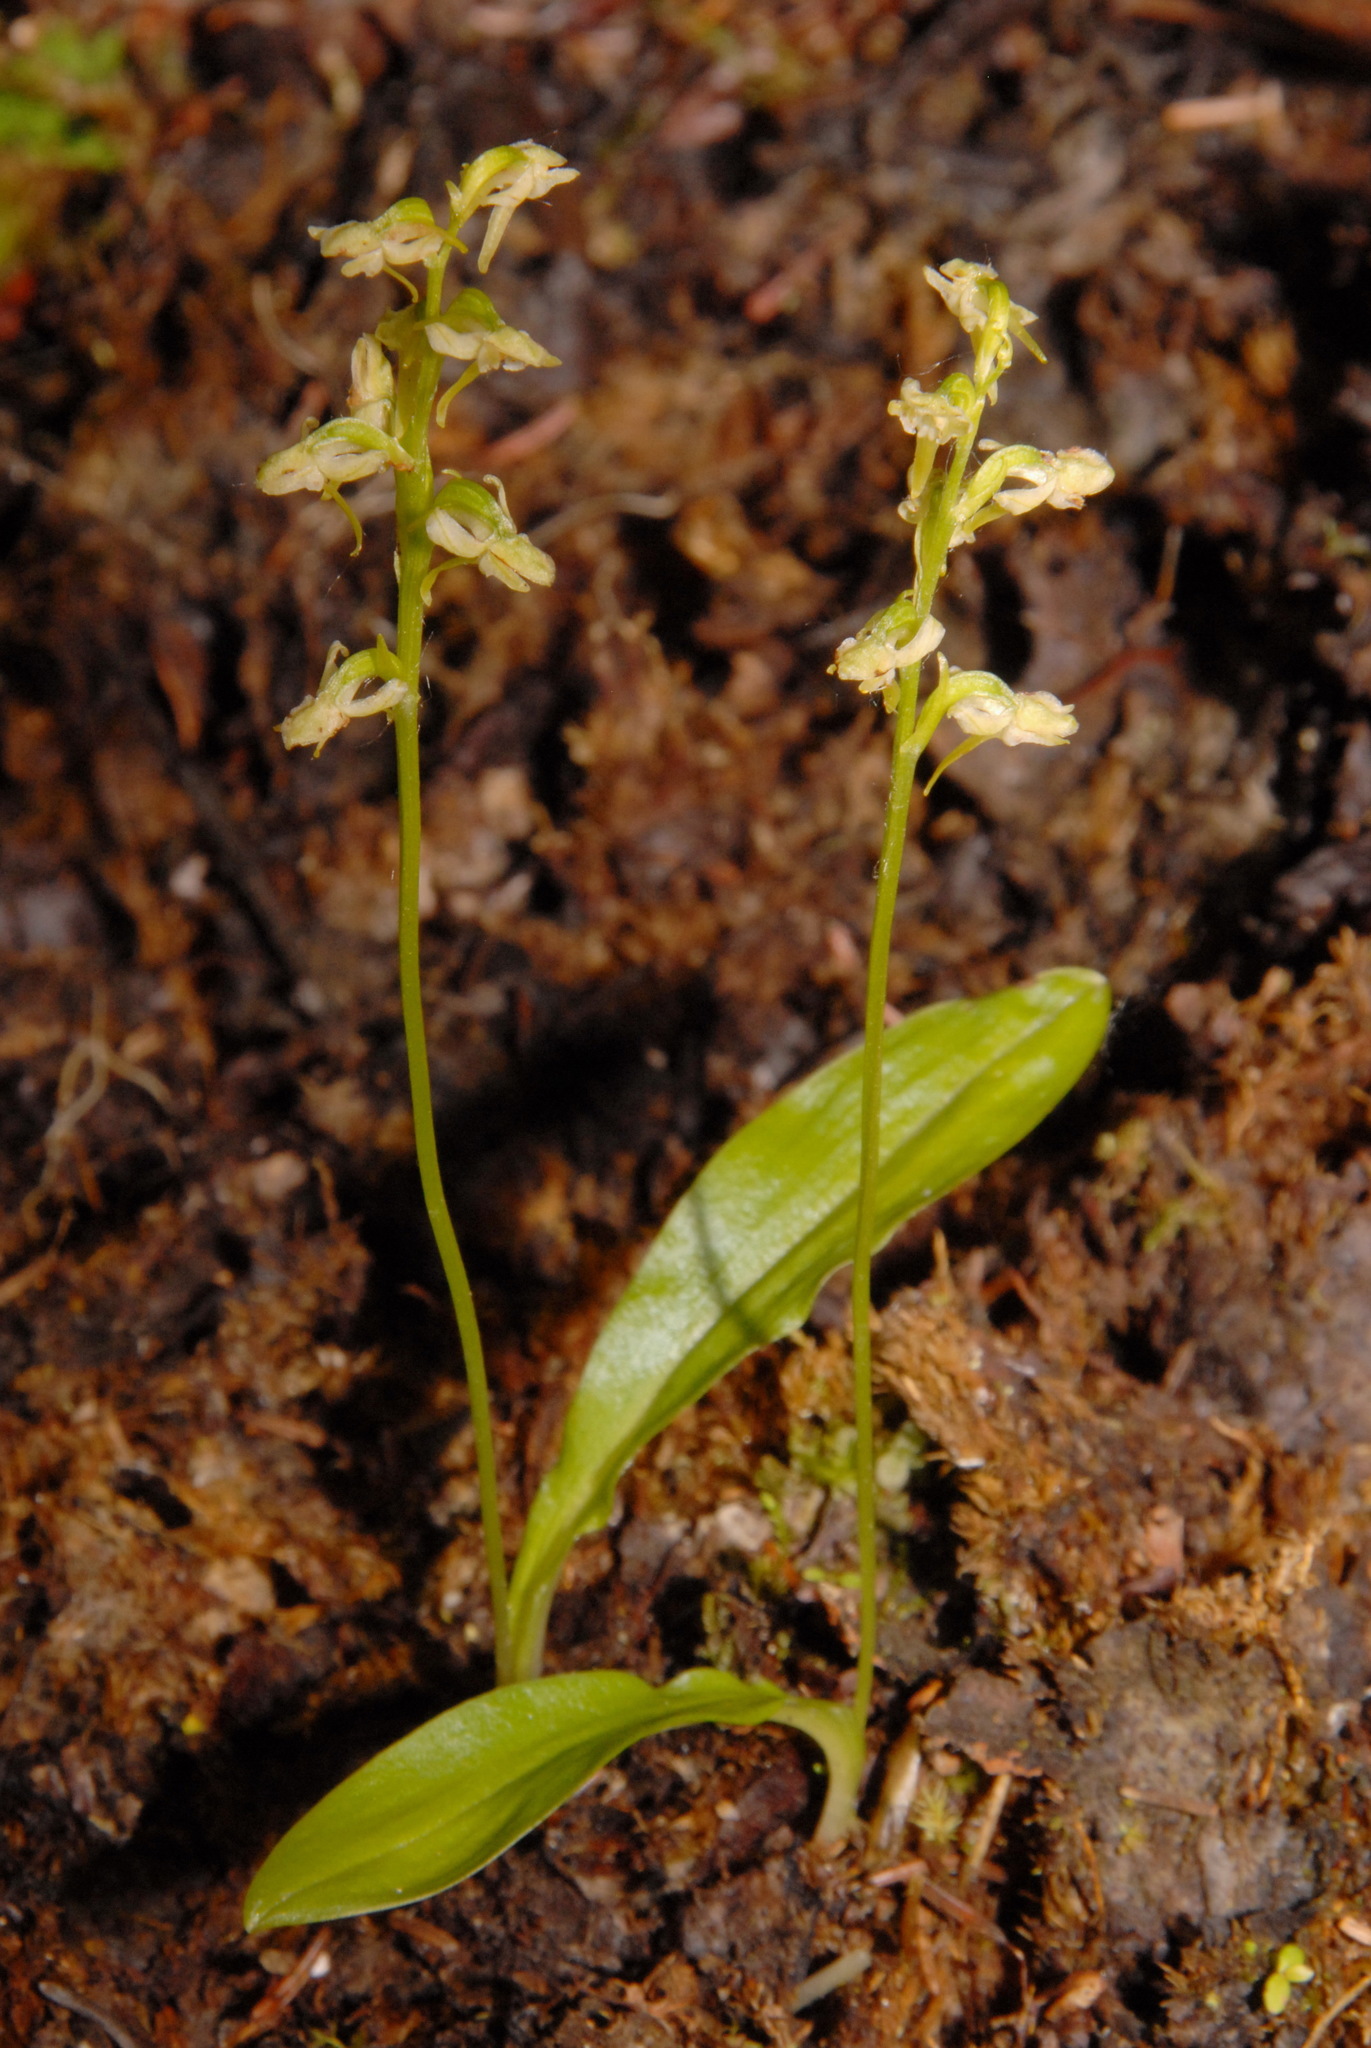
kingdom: Plantae
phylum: Tracheophyta
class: Liliopsida
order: Asparagales
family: Orchidaceae
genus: Platanthera
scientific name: Platanthera obtusata
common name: Blunt bog orchid
